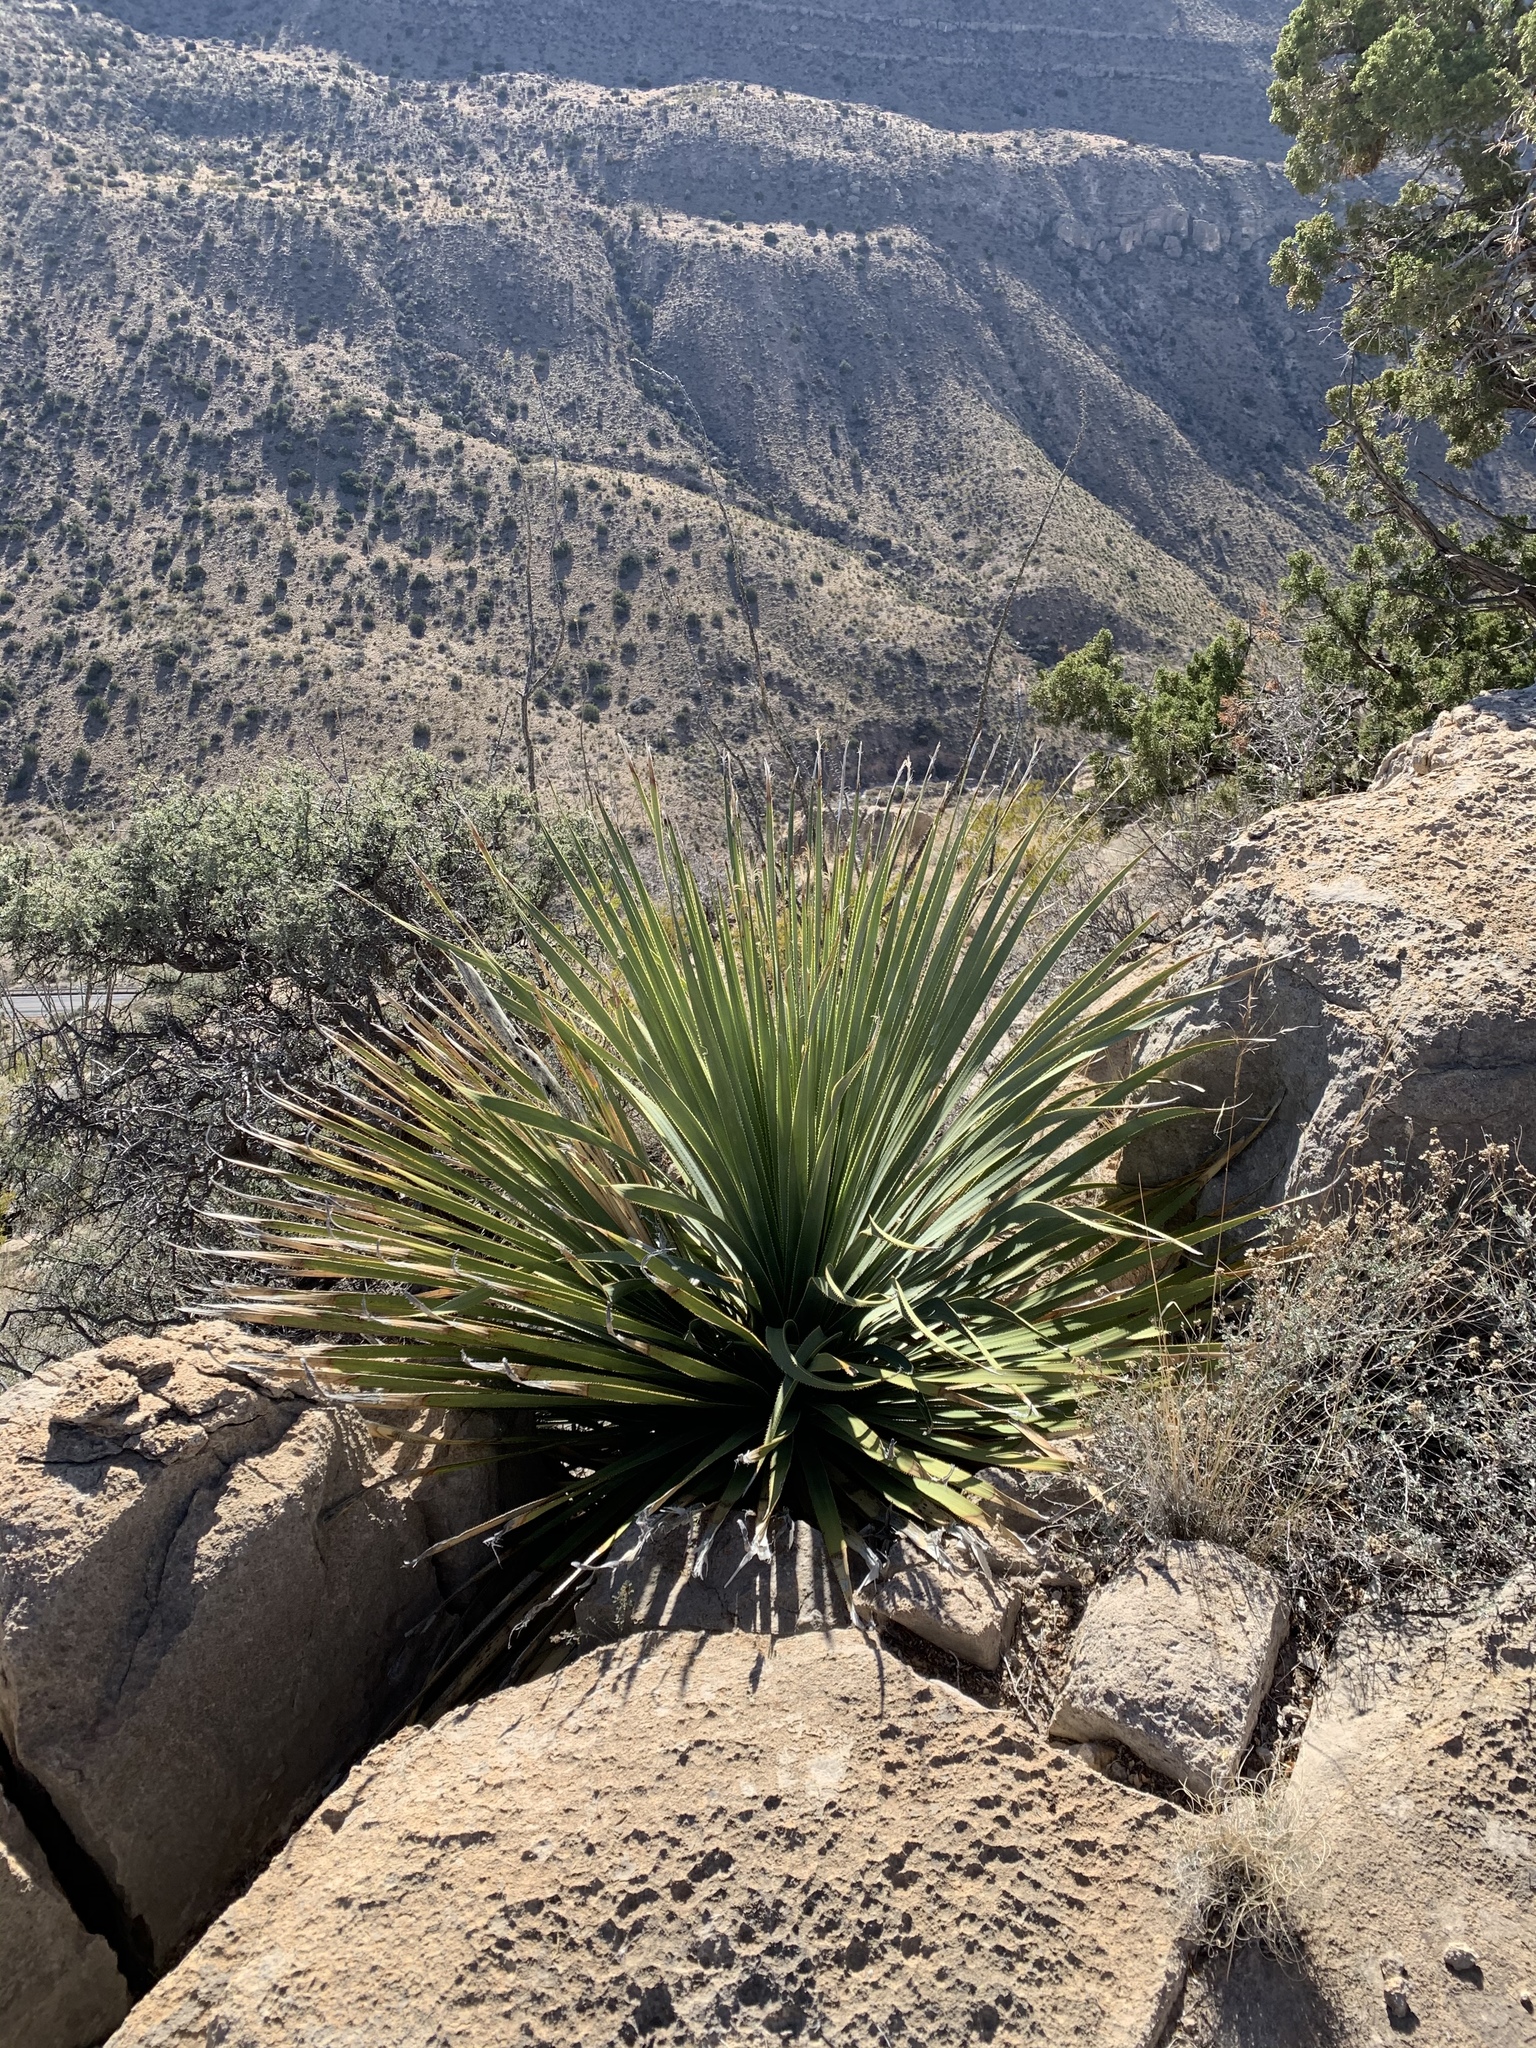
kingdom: Plantae
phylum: Tracheophyta
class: Liliopsida
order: Asparagales
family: Asparagaceae
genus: Dasylirion
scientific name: Dasylirion wheeleri
